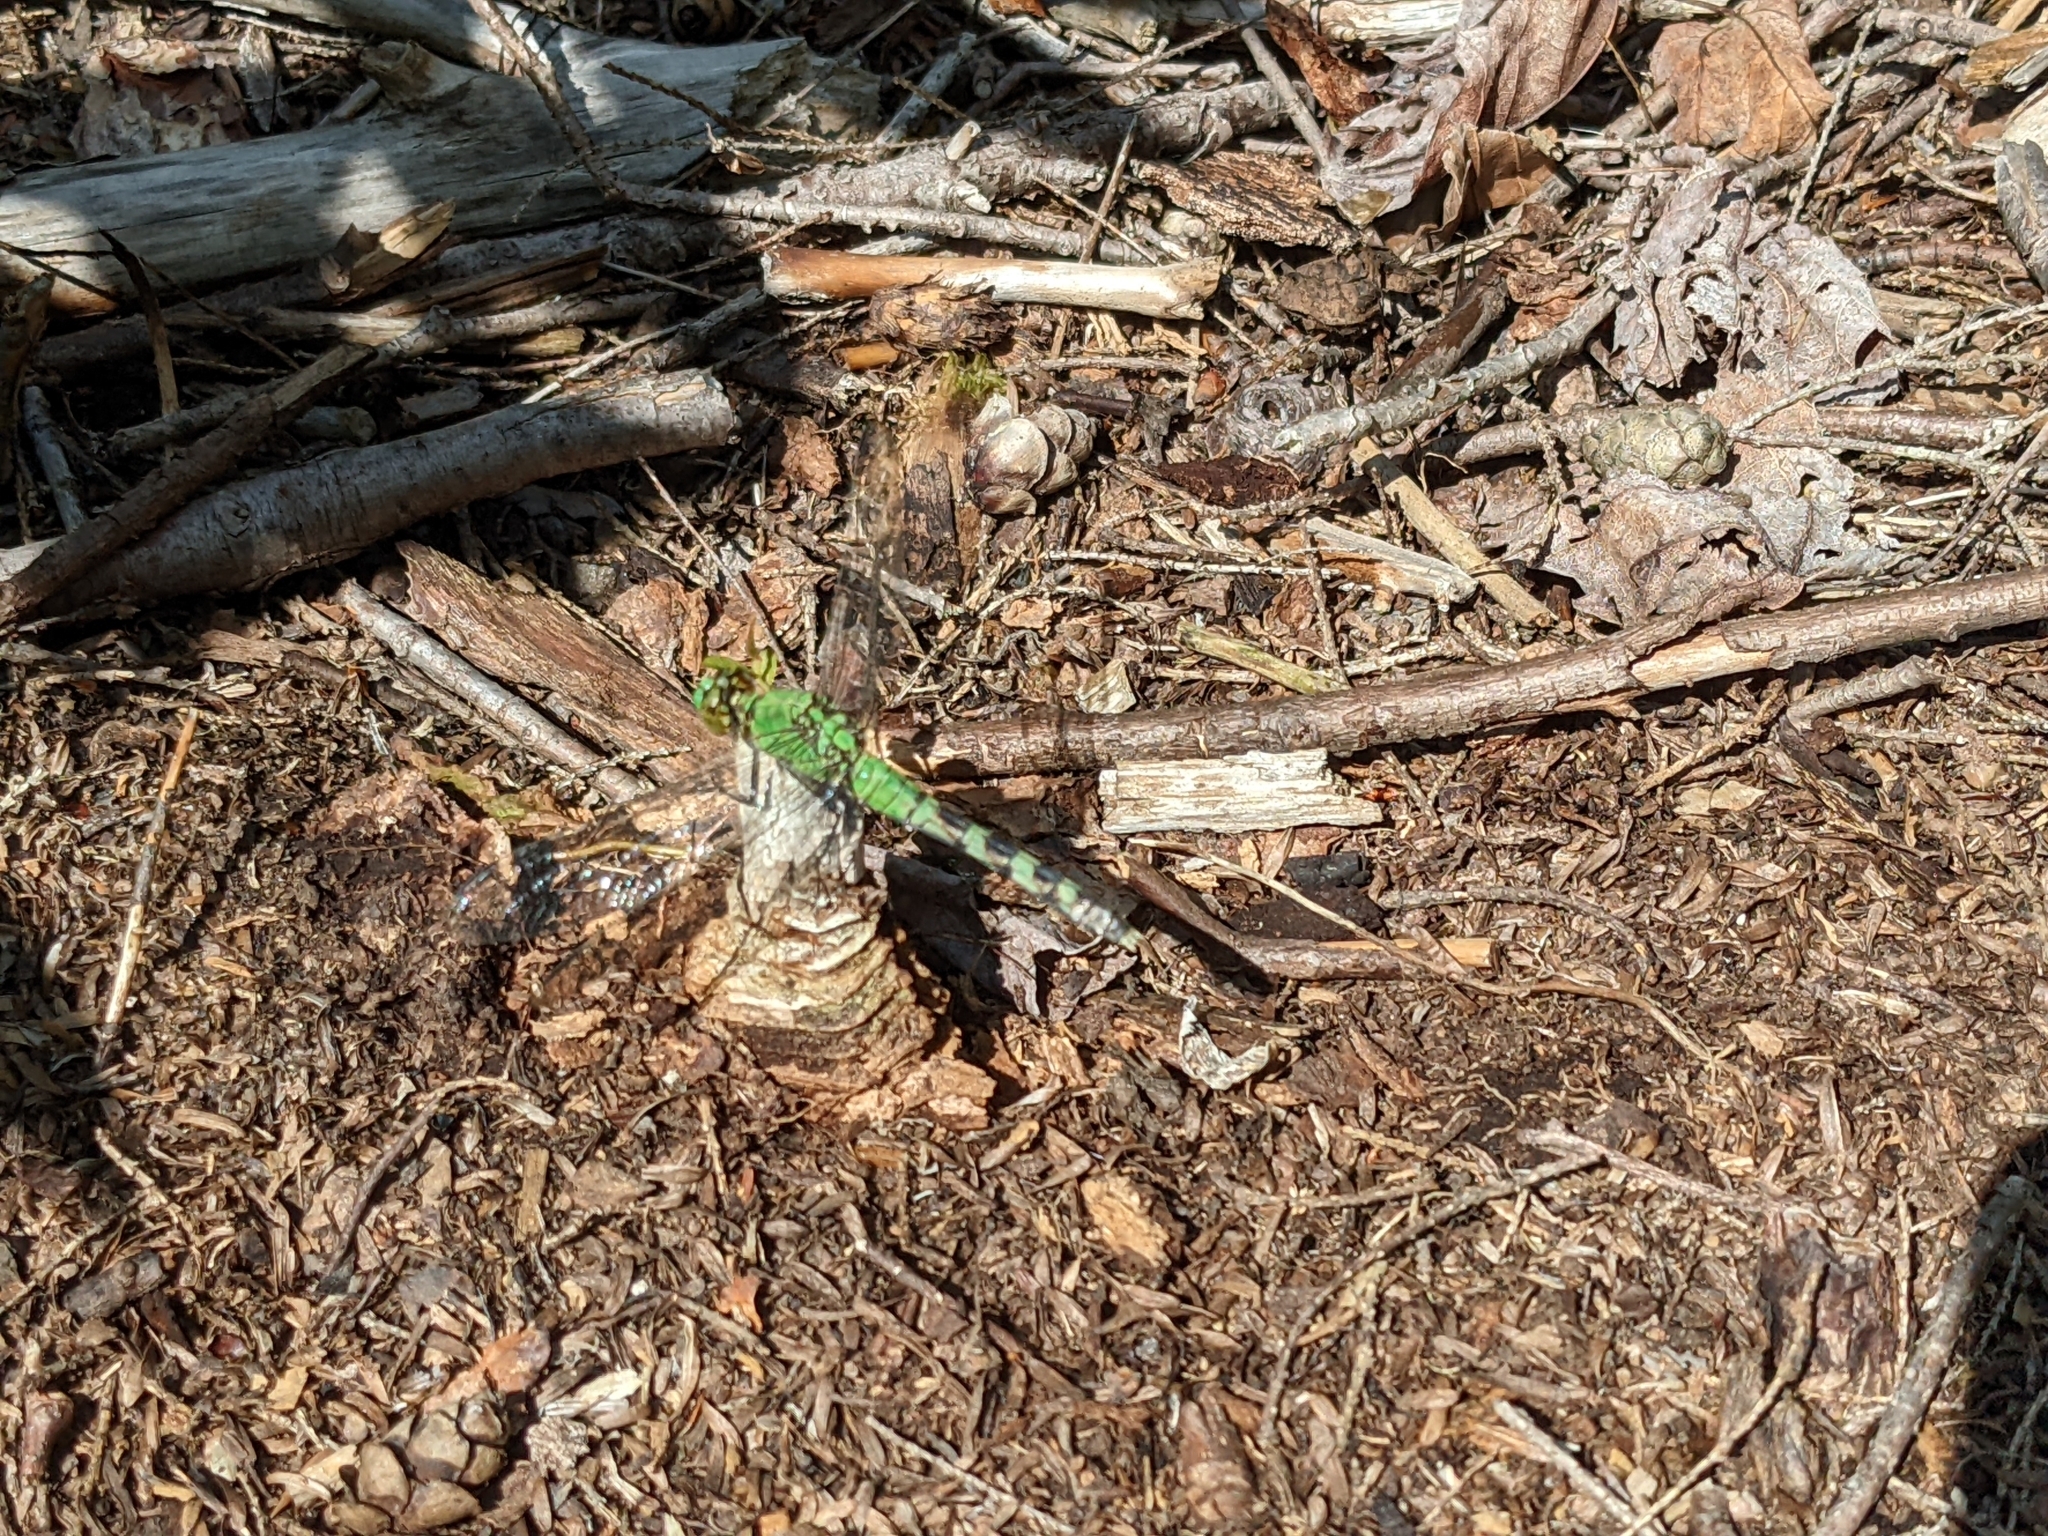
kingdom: Animalia
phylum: Arthropoda
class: Insecta
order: Odonata
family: Libellulidae
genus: Erythemis
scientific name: Erythemis simplicicollis
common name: Eastern pondhawk
